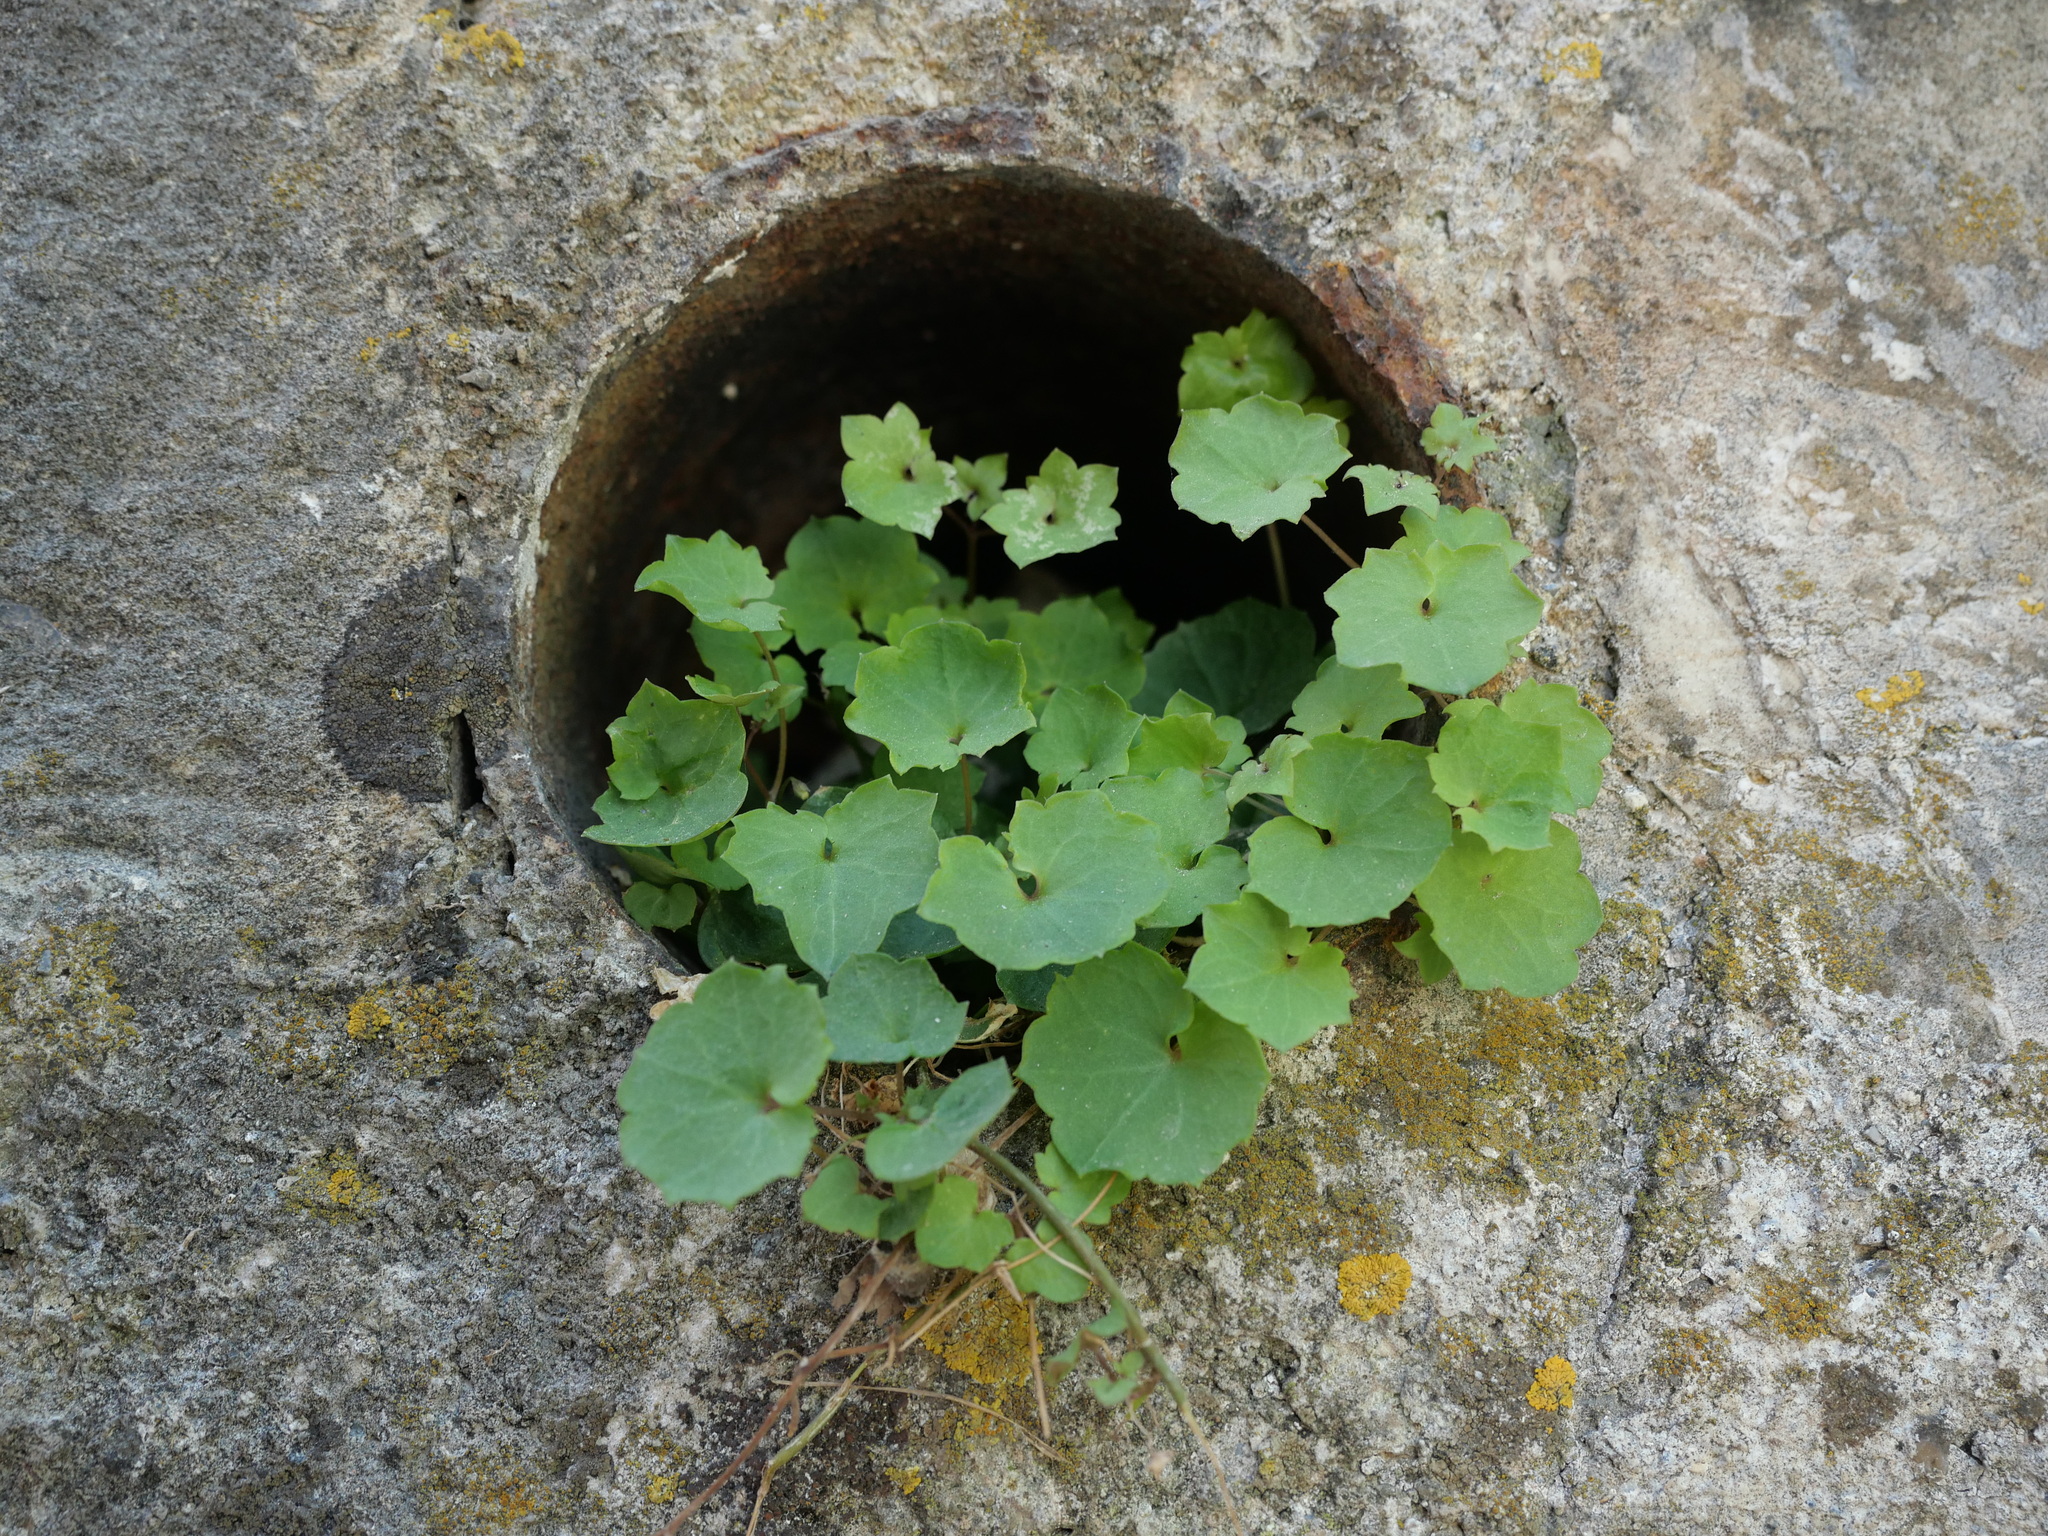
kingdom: Plantae
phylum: Tracheophyta
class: Magnoliopsida
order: Lamiales
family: Plantaginaceae
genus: Cymbalaria
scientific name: Cymbalaria muralis
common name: Ivy-leaved toadflax
